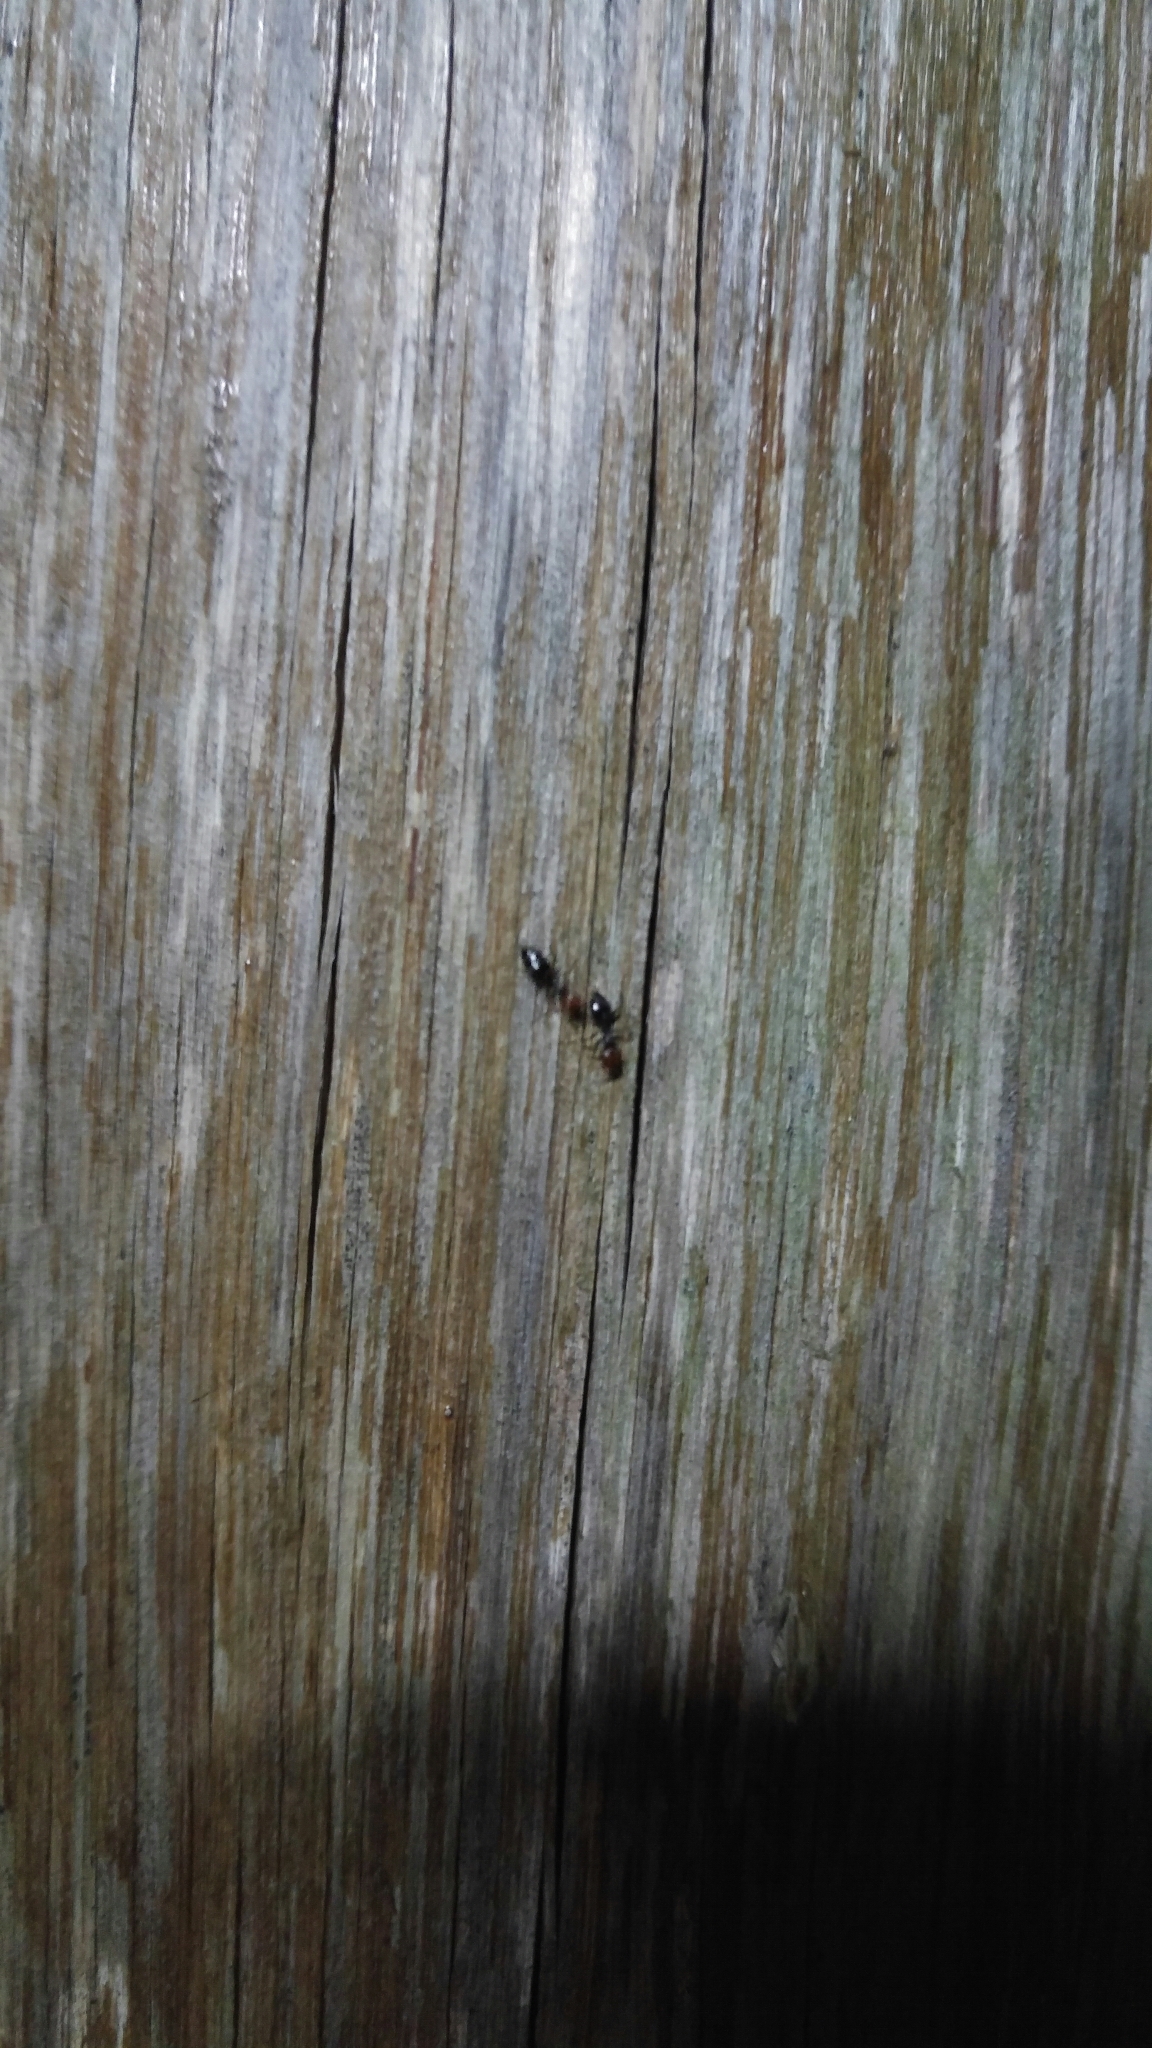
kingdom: Animalia
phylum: Arthropoda
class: Insecta
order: Hymenoptera
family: Formicidae
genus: Crematogaster
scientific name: Crematogaster scutellaris
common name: Fourmi du liège
